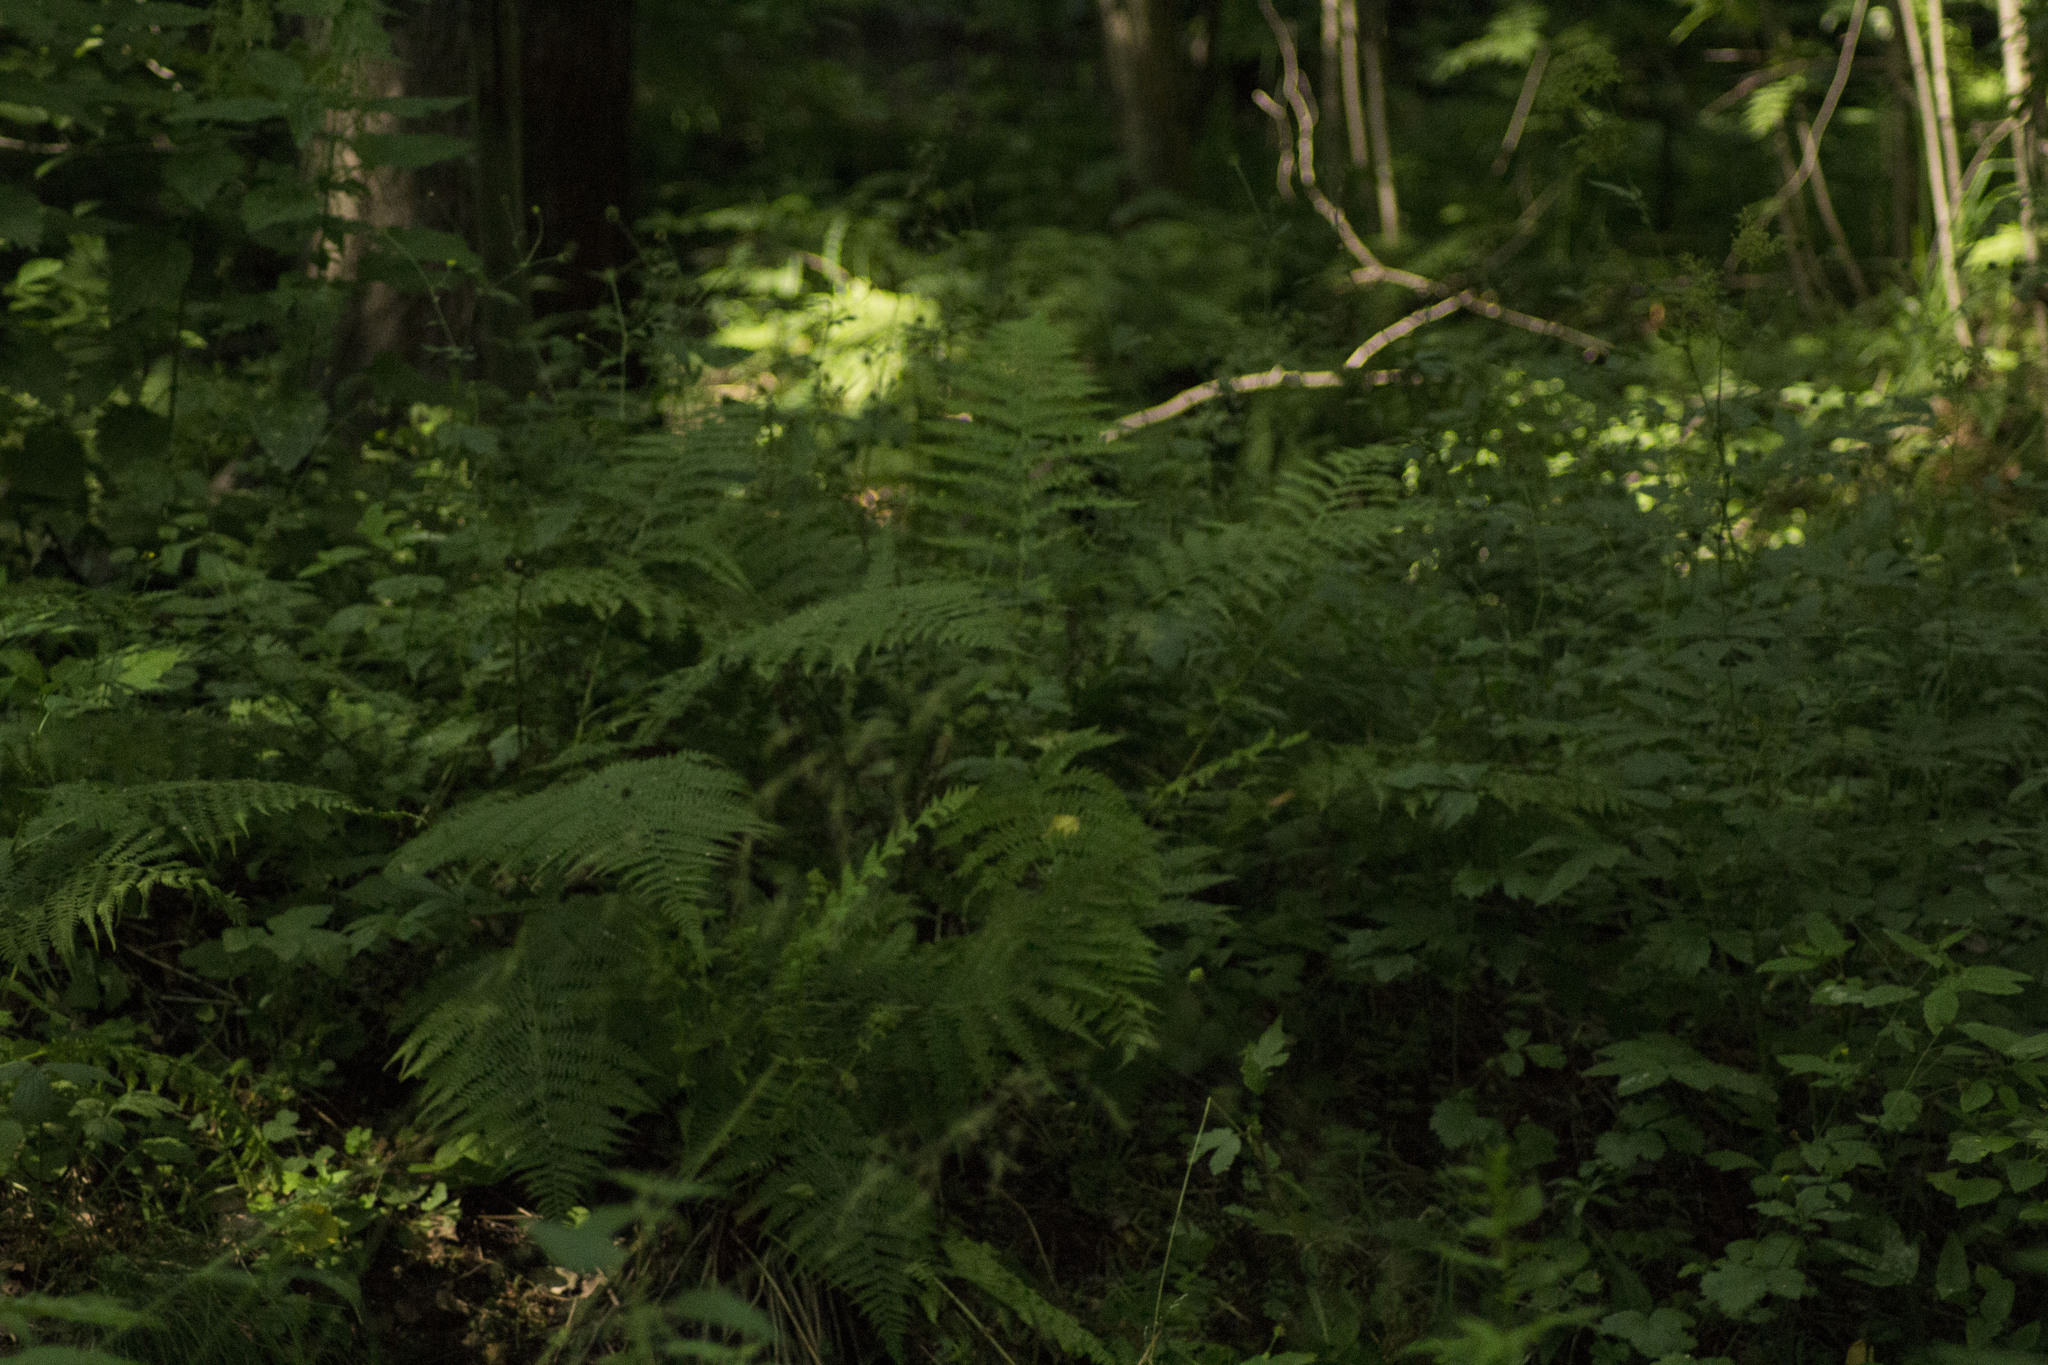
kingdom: Plantae
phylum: Tracheophyta
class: Polypodiopsida
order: Polypodiales
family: Athyriaceae
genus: Athyrium
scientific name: Athyrium filix-femina
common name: Lady fern
